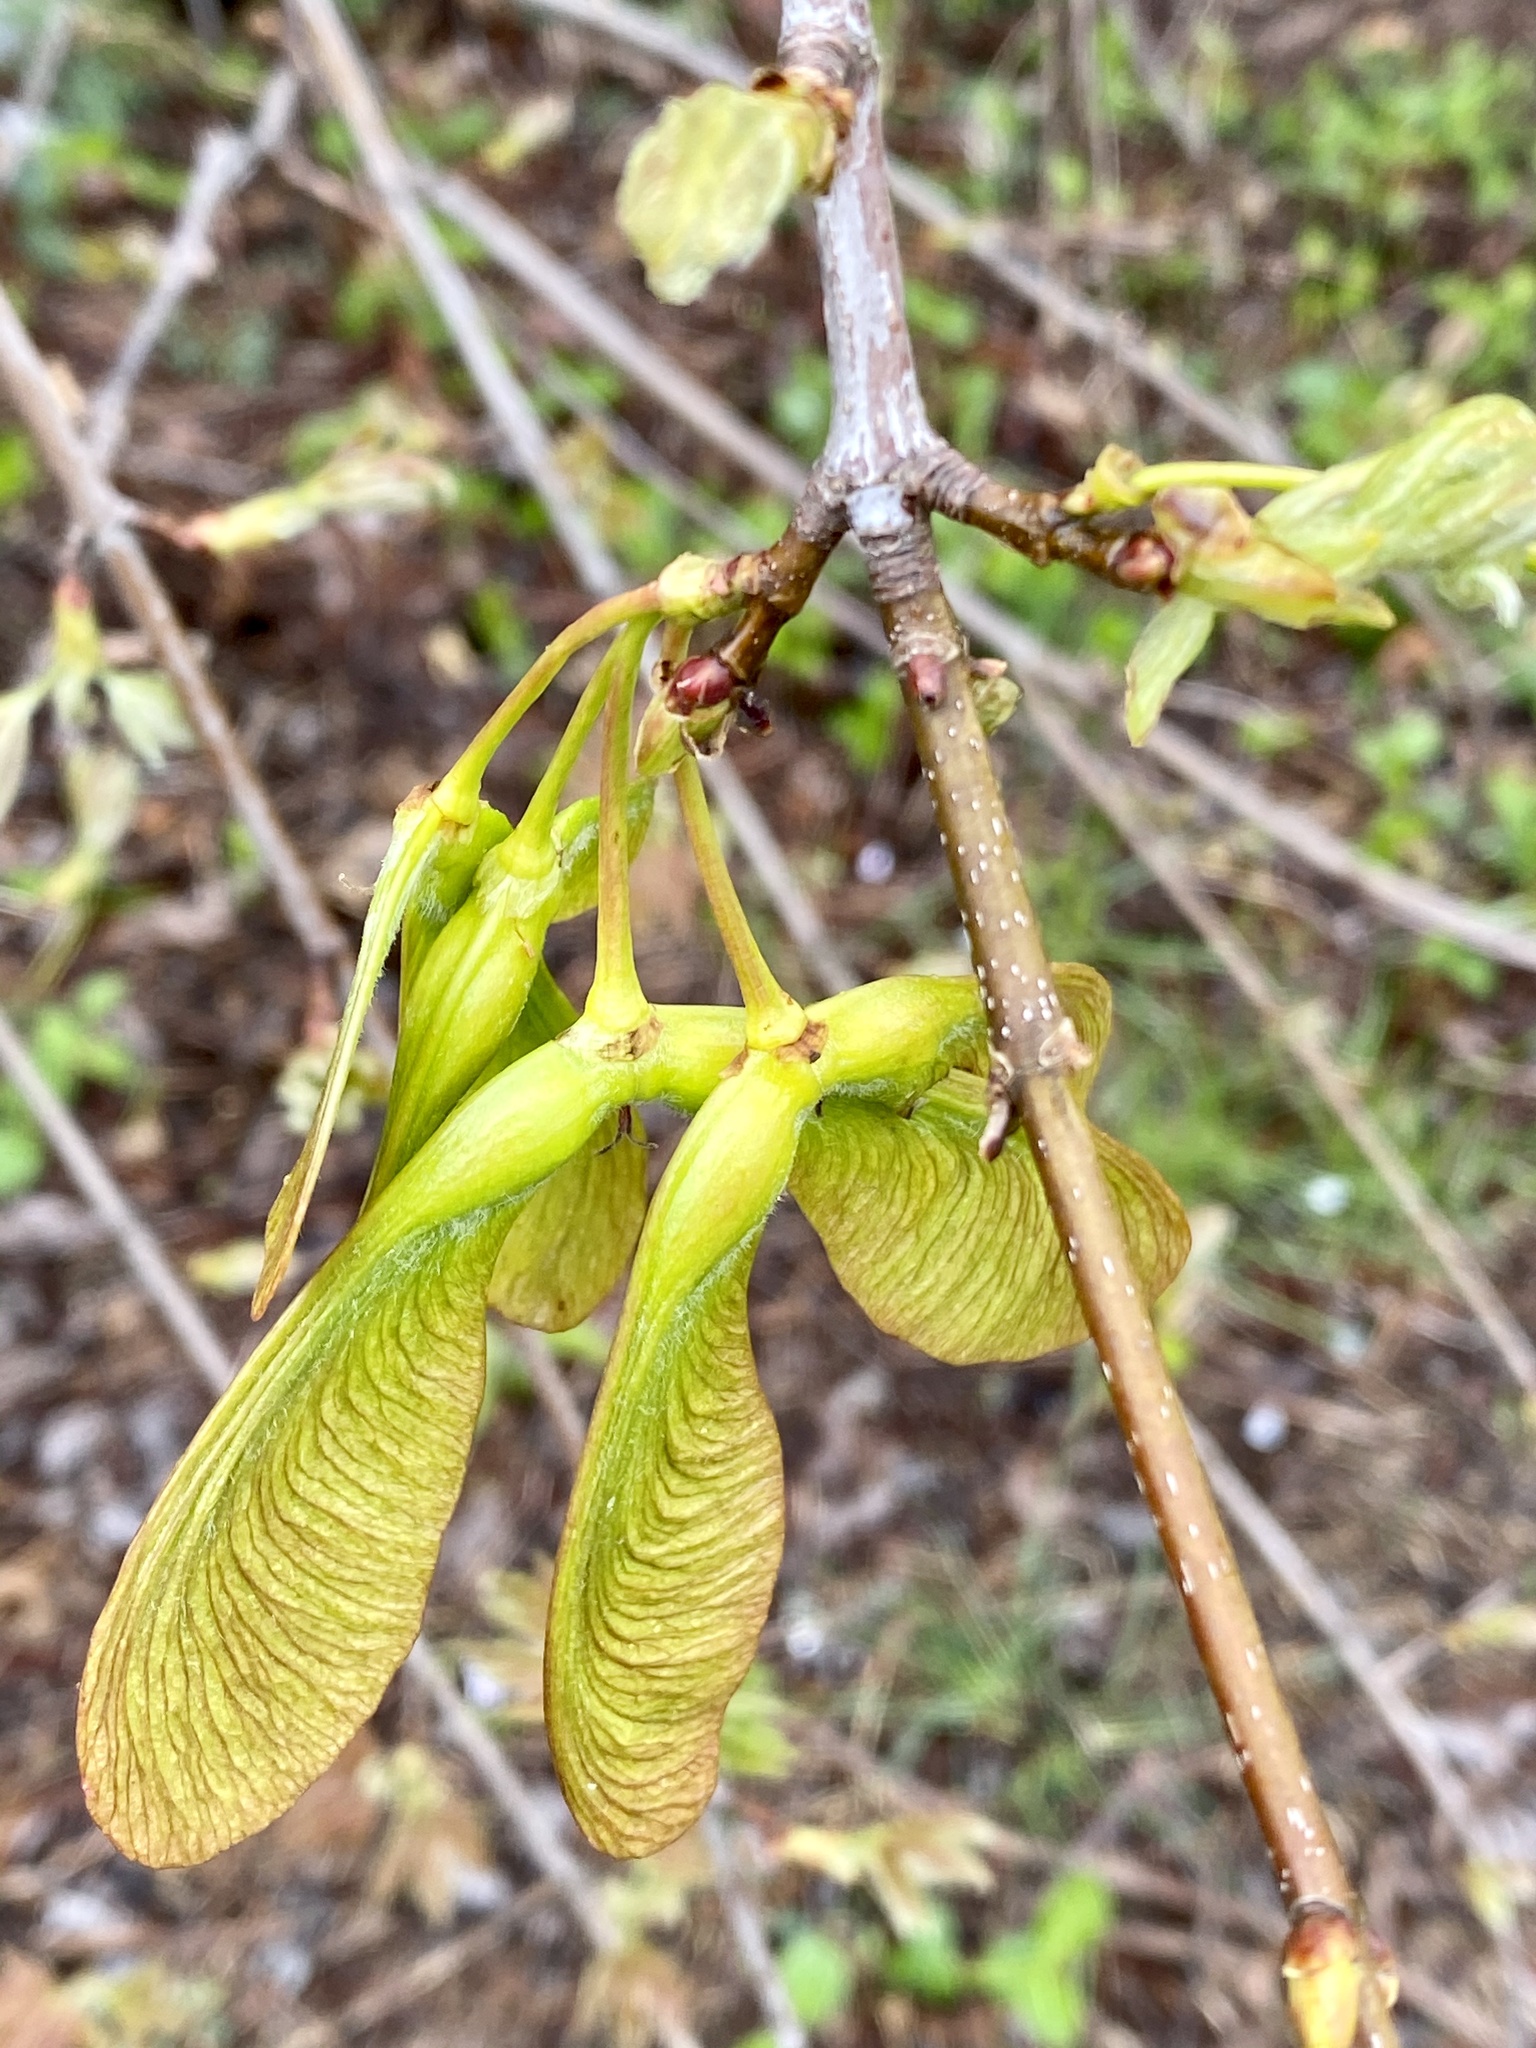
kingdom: Plantae
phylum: Tracheophyta
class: Magnoliopsida
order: Sapindales
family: Sapindaceae
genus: Acer
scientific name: Acer saccharinum
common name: Silver maple
